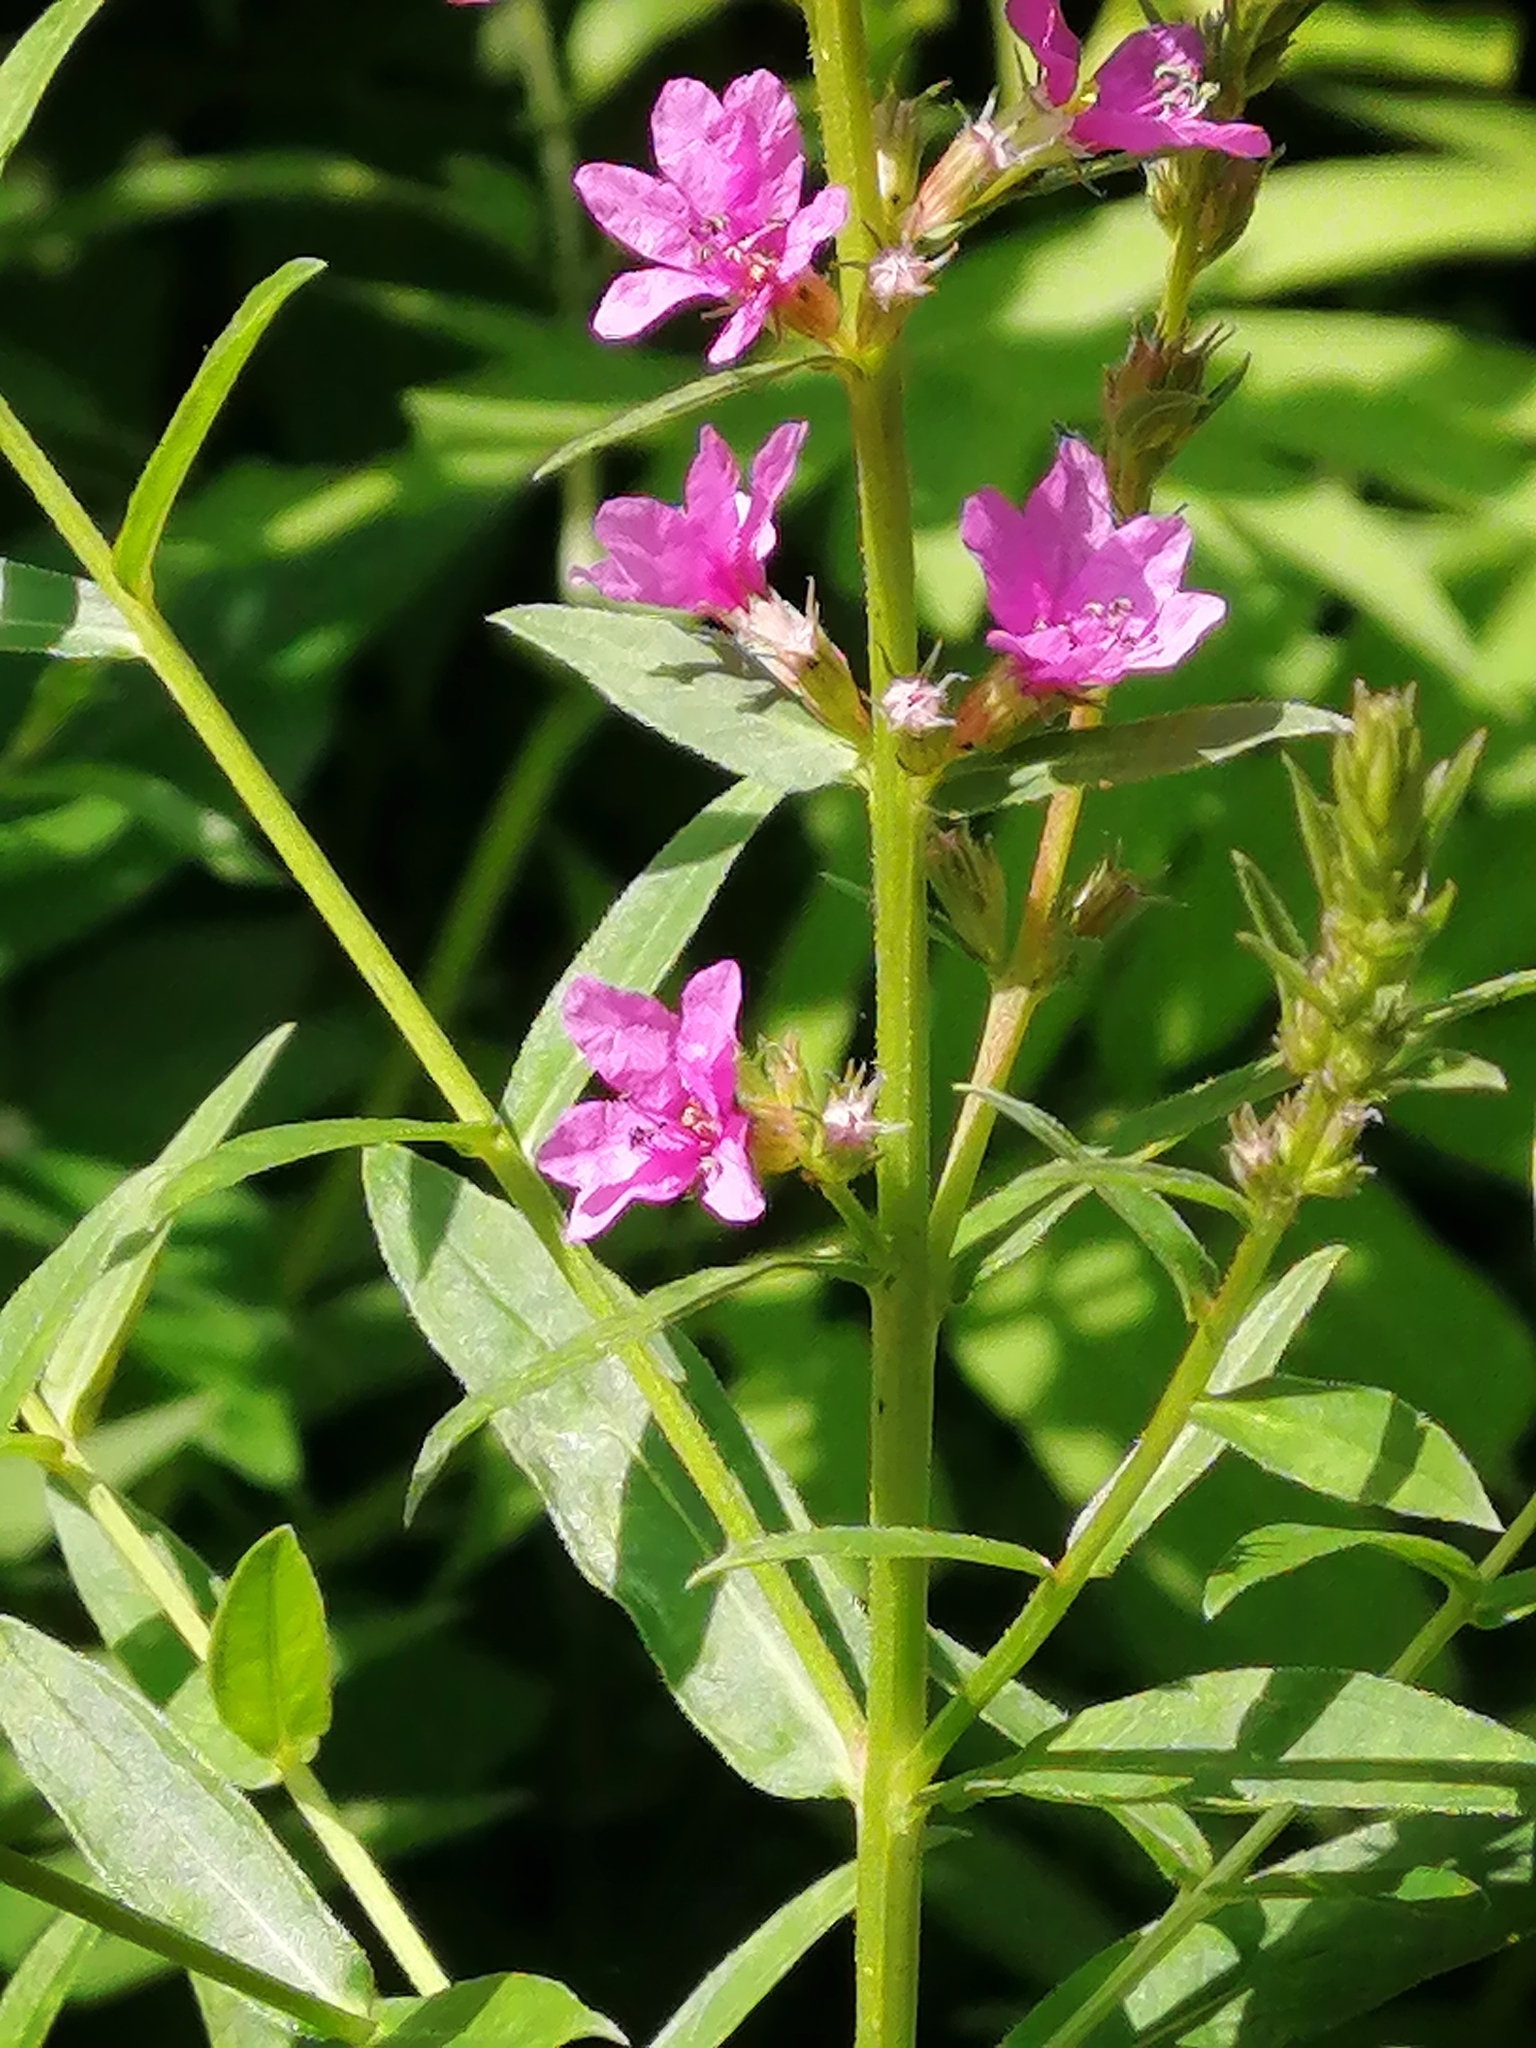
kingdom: Plantae
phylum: Tracheophyta
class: Magnoliopsida
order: Myrtales
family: Lythraceae
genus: Lythrum
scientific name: Lythrum salicaria
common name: Purple loosestrife
